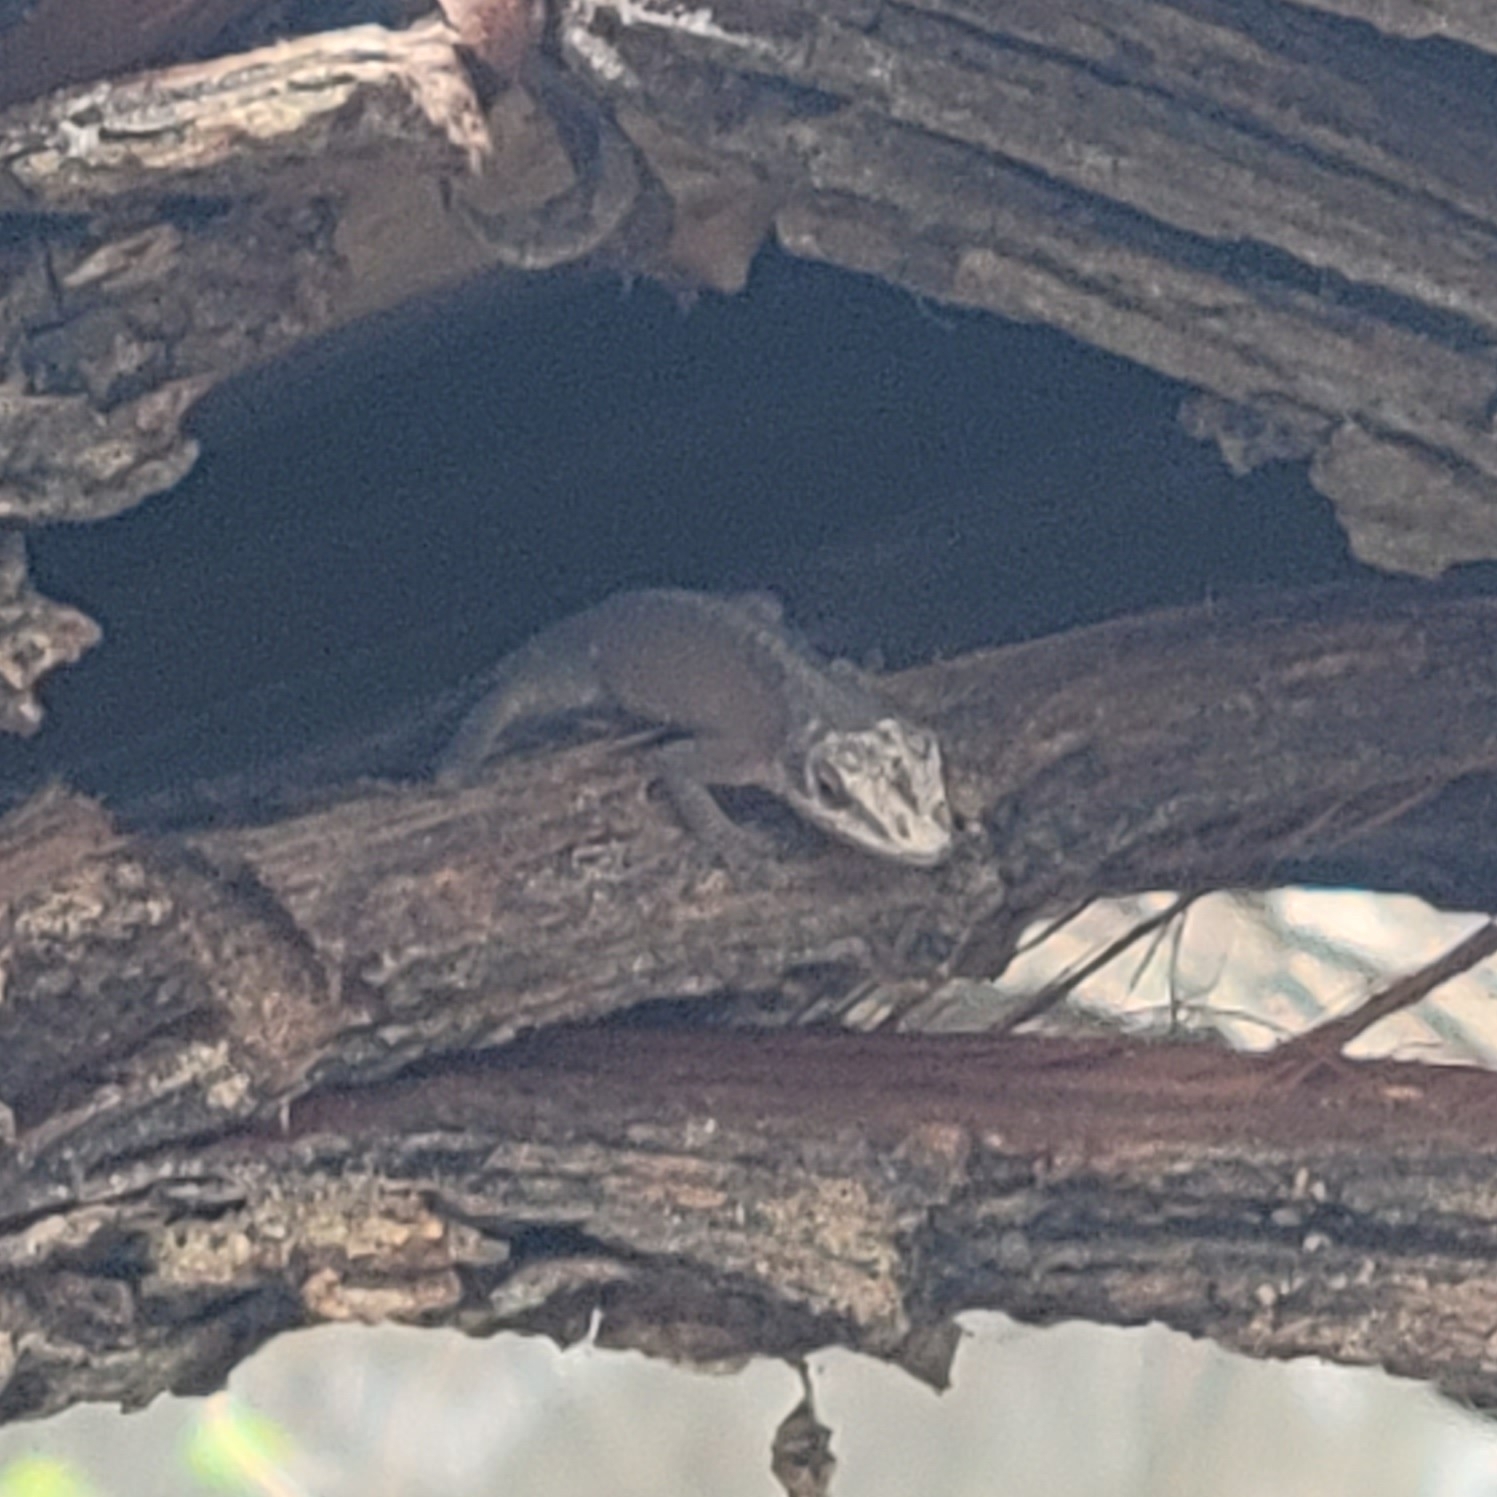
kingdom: Animalia
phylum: Chordata
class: Squamata
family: Dactyloidae
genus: Anolis
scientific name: Anolis carolinensis
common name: Green anole
